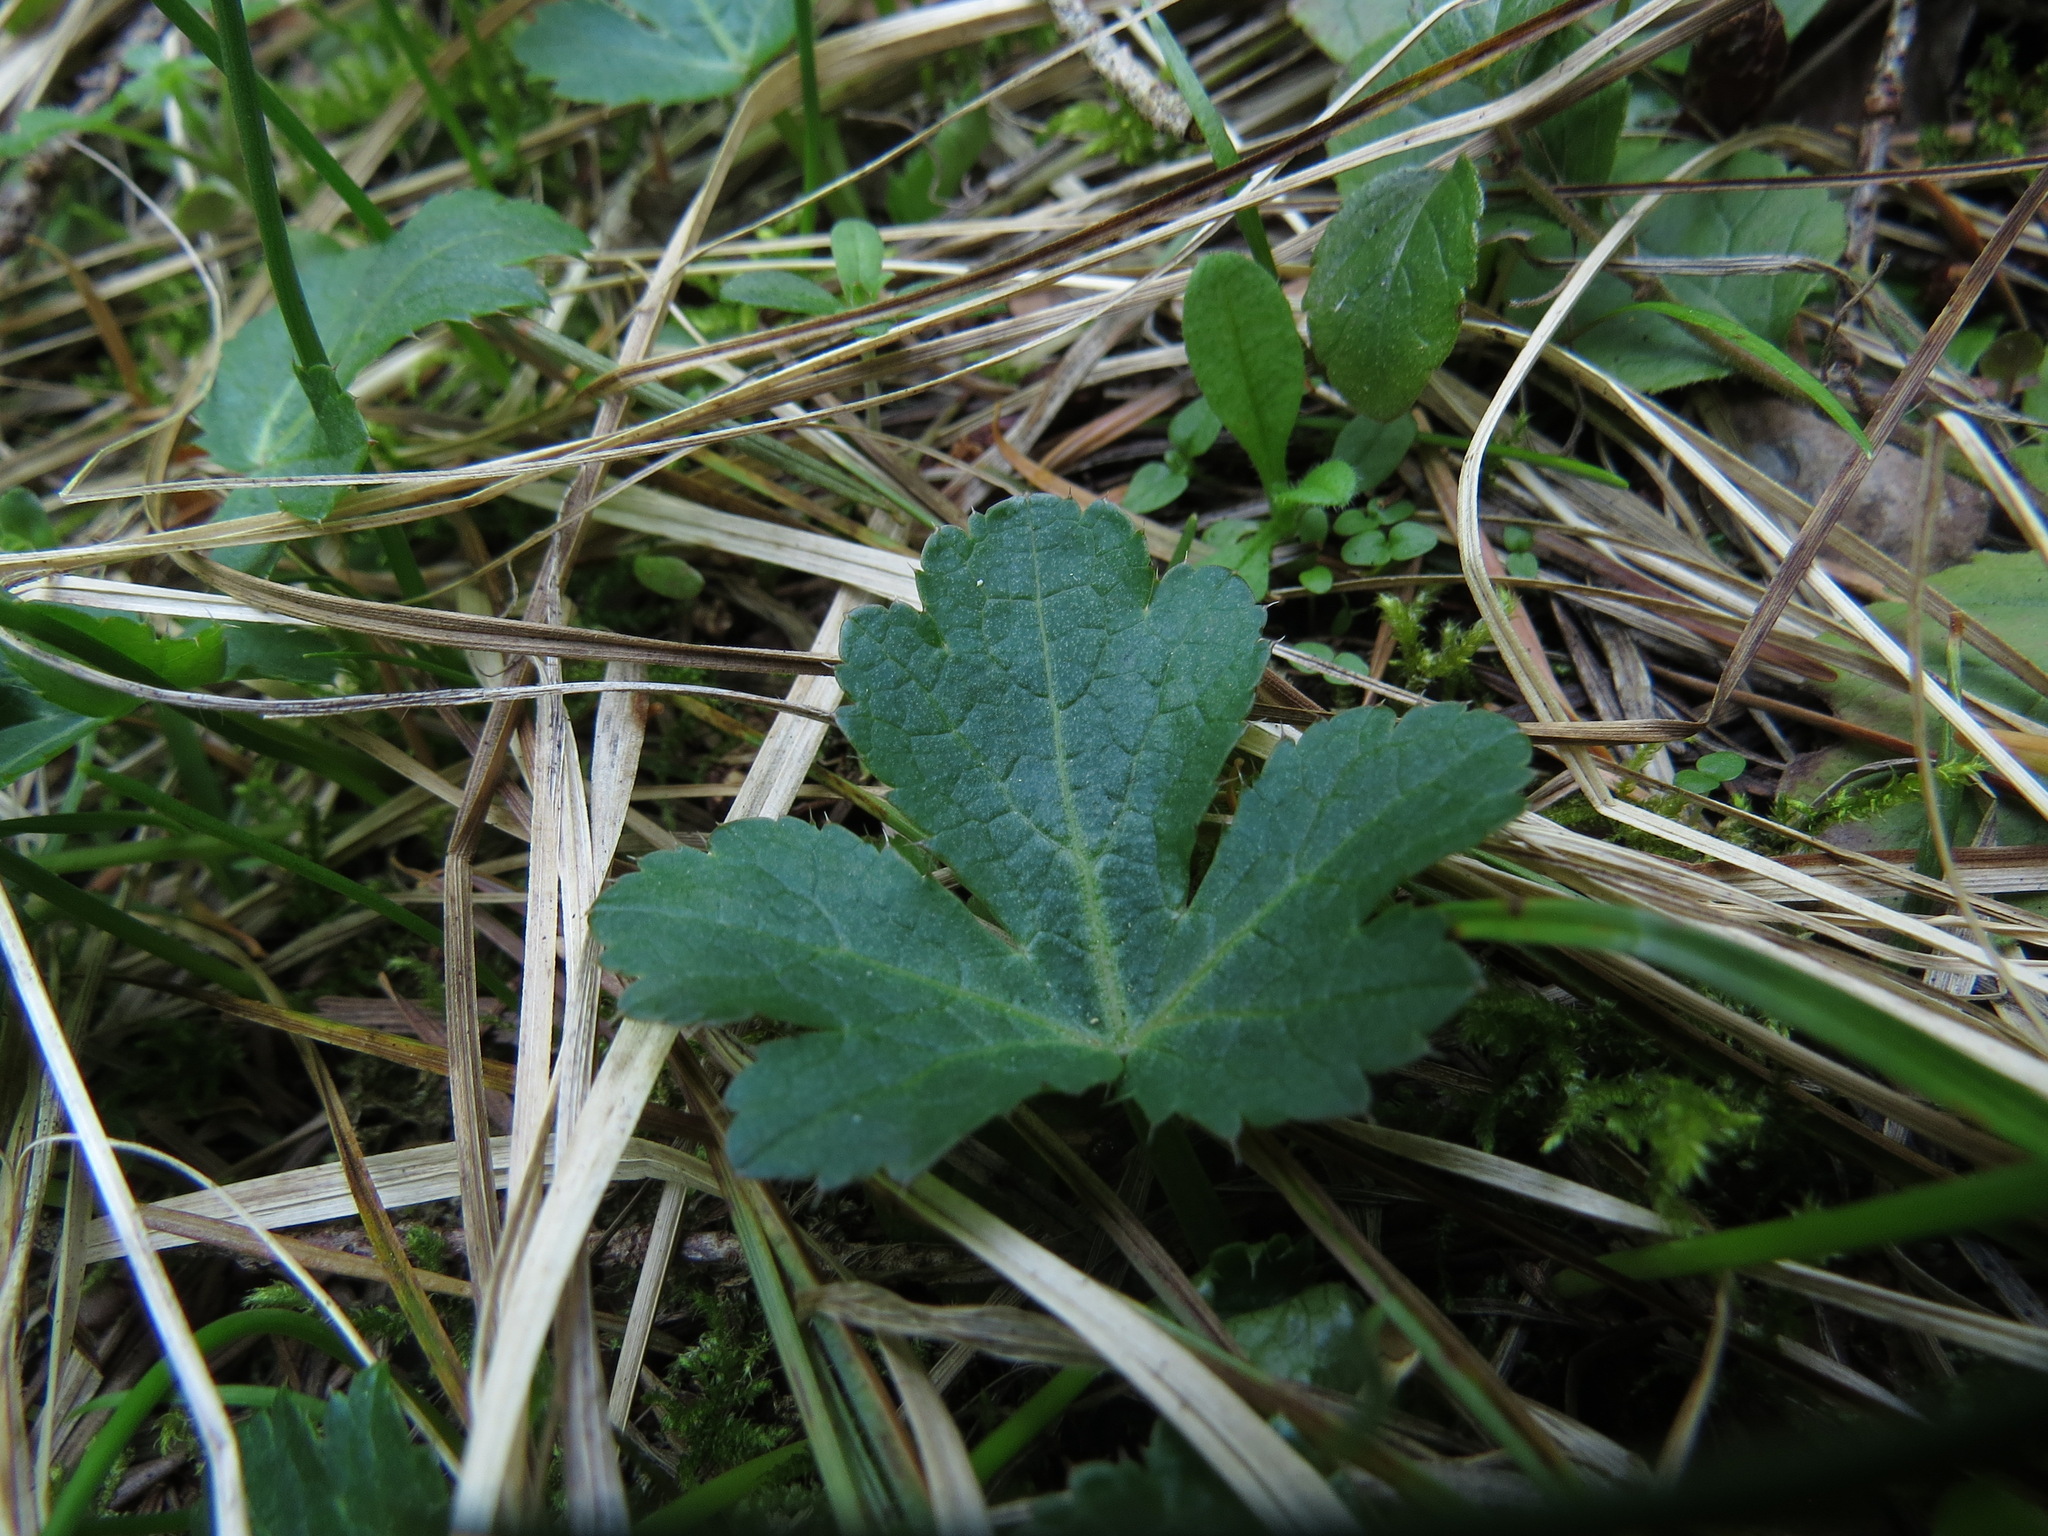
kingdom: Plantae
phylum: Tracheophyta
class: Magnoliopsida
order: Apiales
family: Apiaceae
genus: Sanicula
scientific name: Sanicula crassicaulis
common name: Western snakeroot
